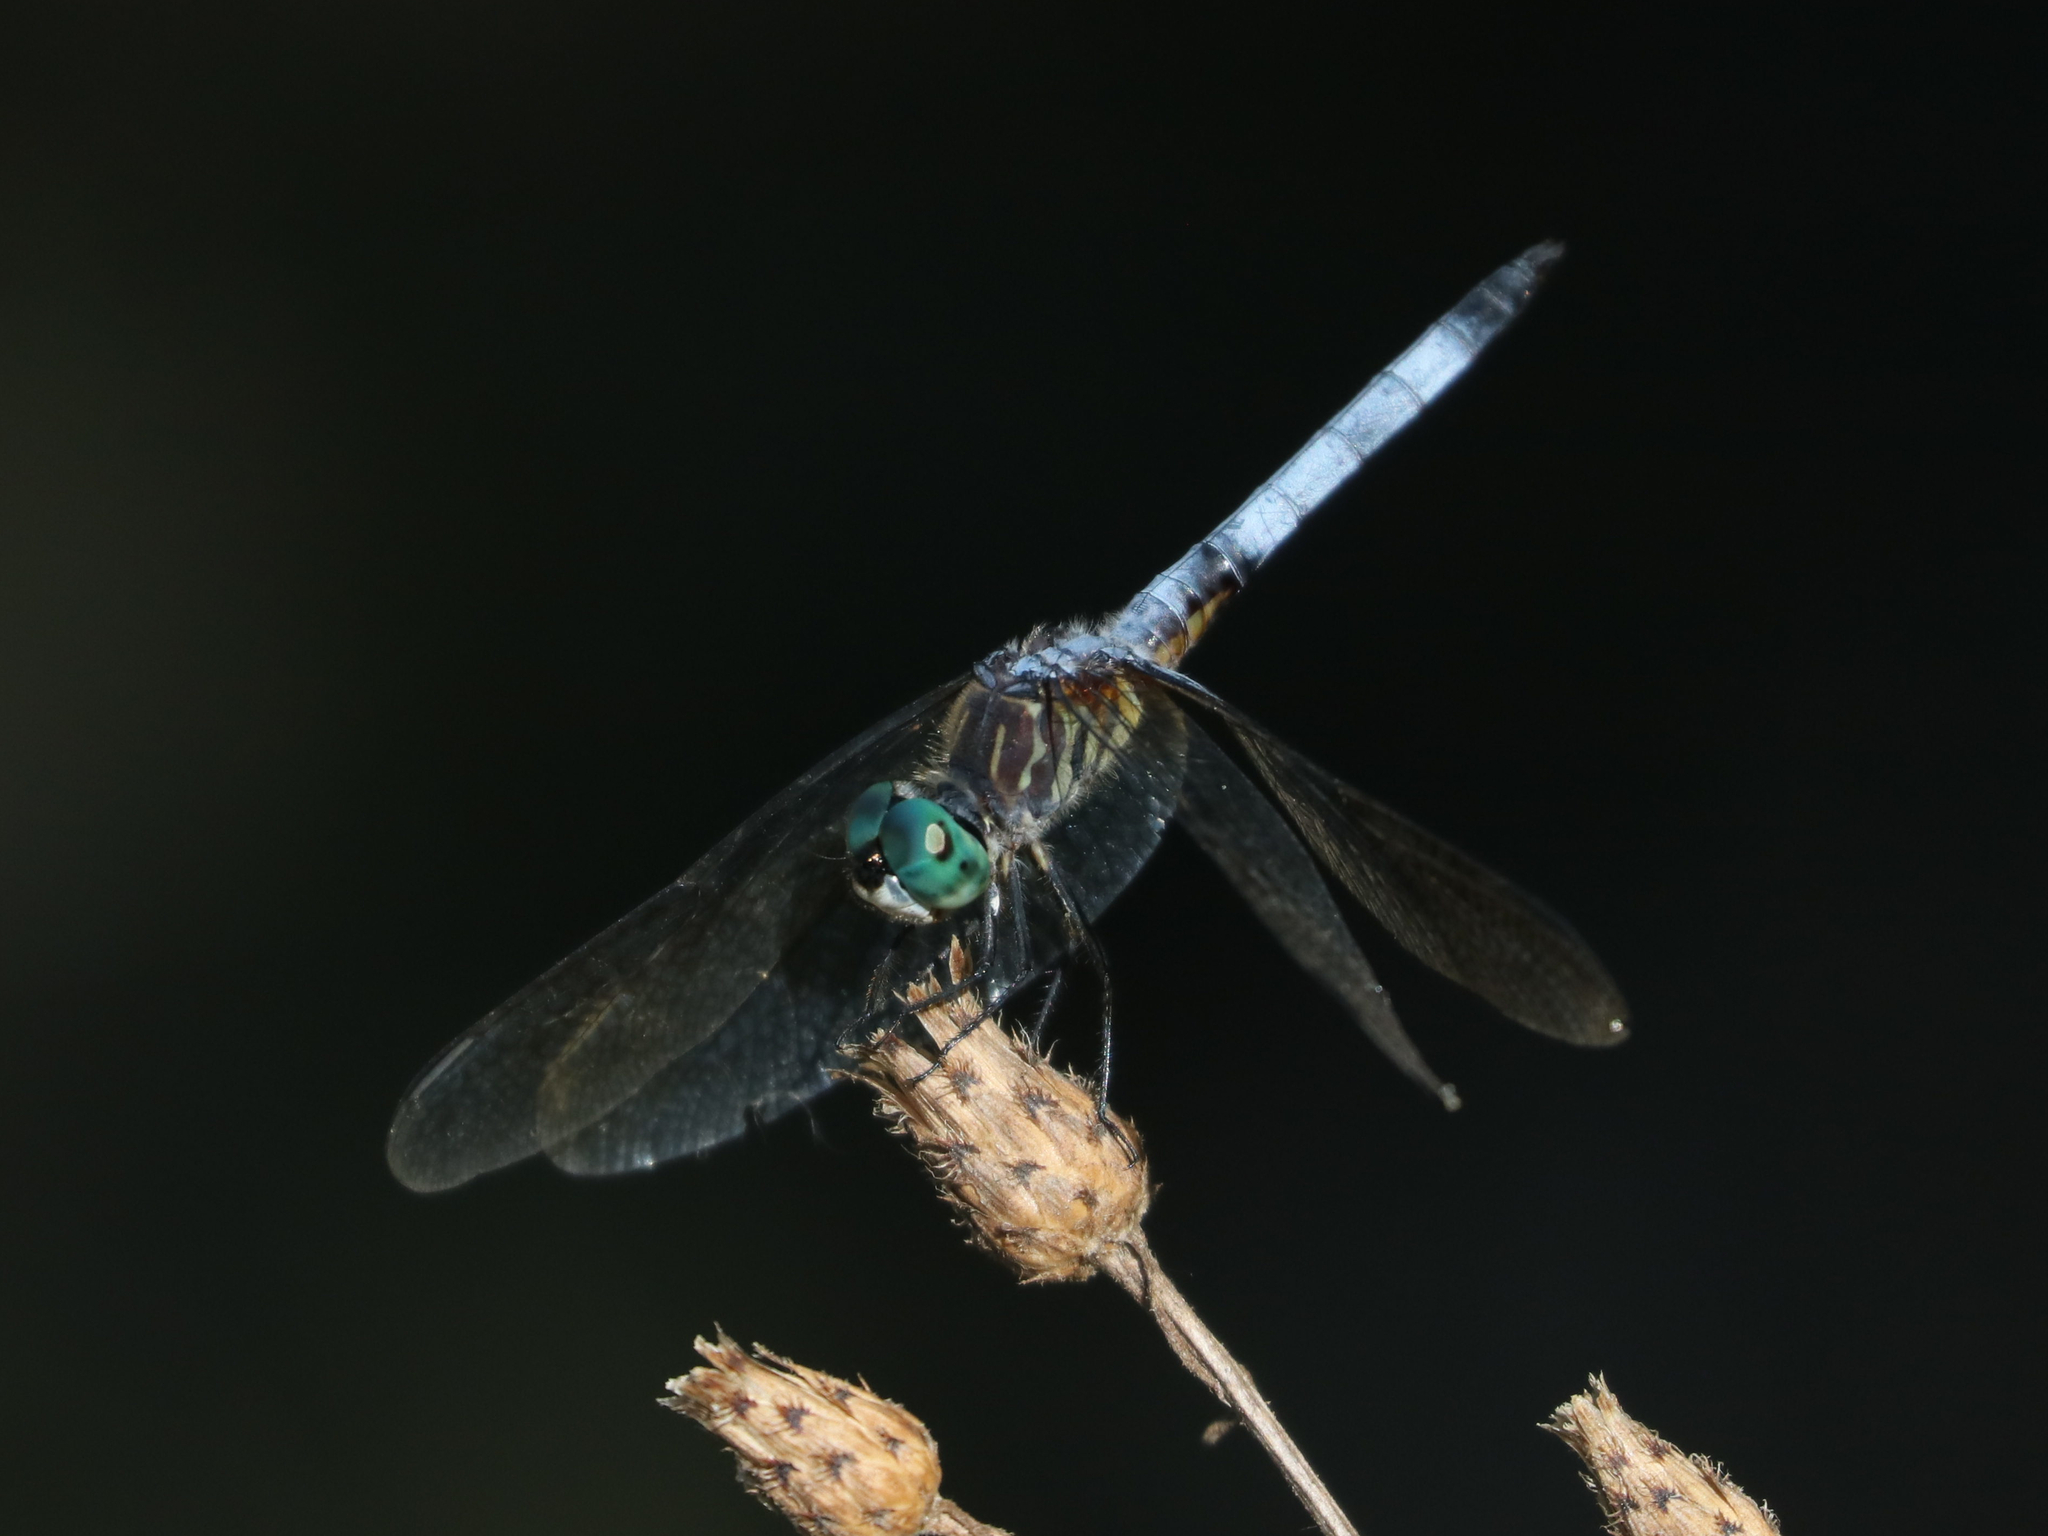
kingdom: Animalia
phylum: Arthropoda
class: Insecta
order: Odonata
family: Libellulidae
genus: Pachydiplax
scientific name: Pachydiplax longipennis
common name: Blue dasher
